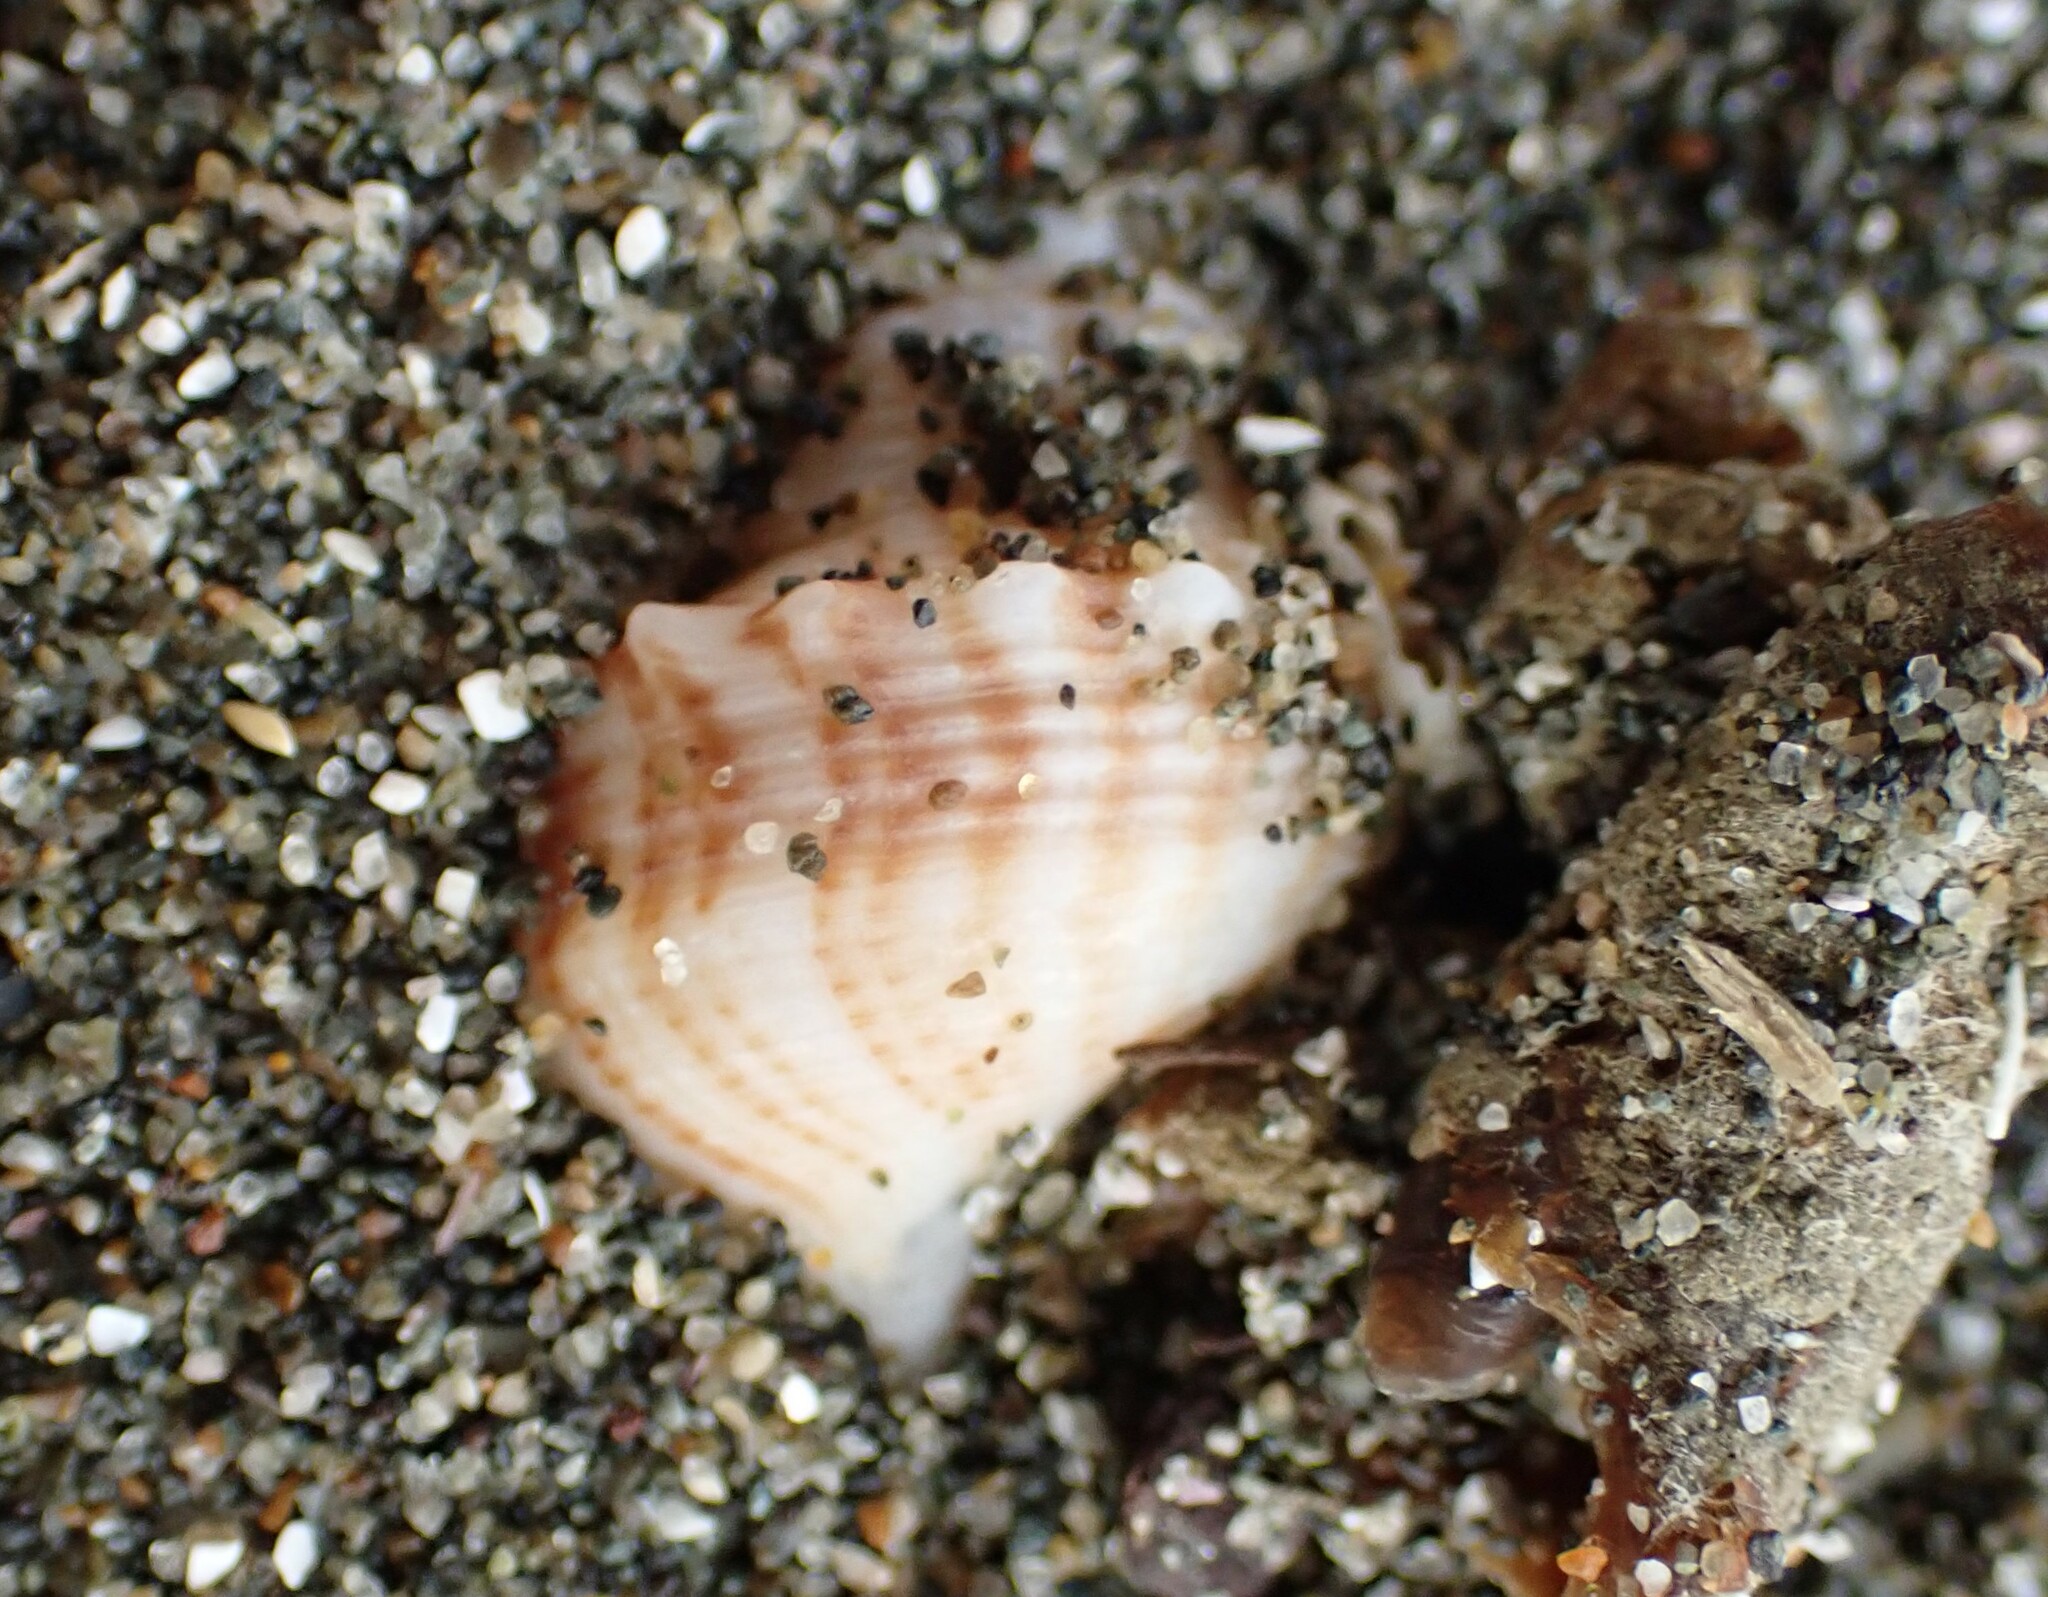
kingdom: Animalia
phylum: Mollusca
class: Gastropoda
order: Littorinimorpha
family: Struthiolariidae
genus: Struthiolaria
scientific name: Struthiolaria papulosa
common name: Large ostrich foot
